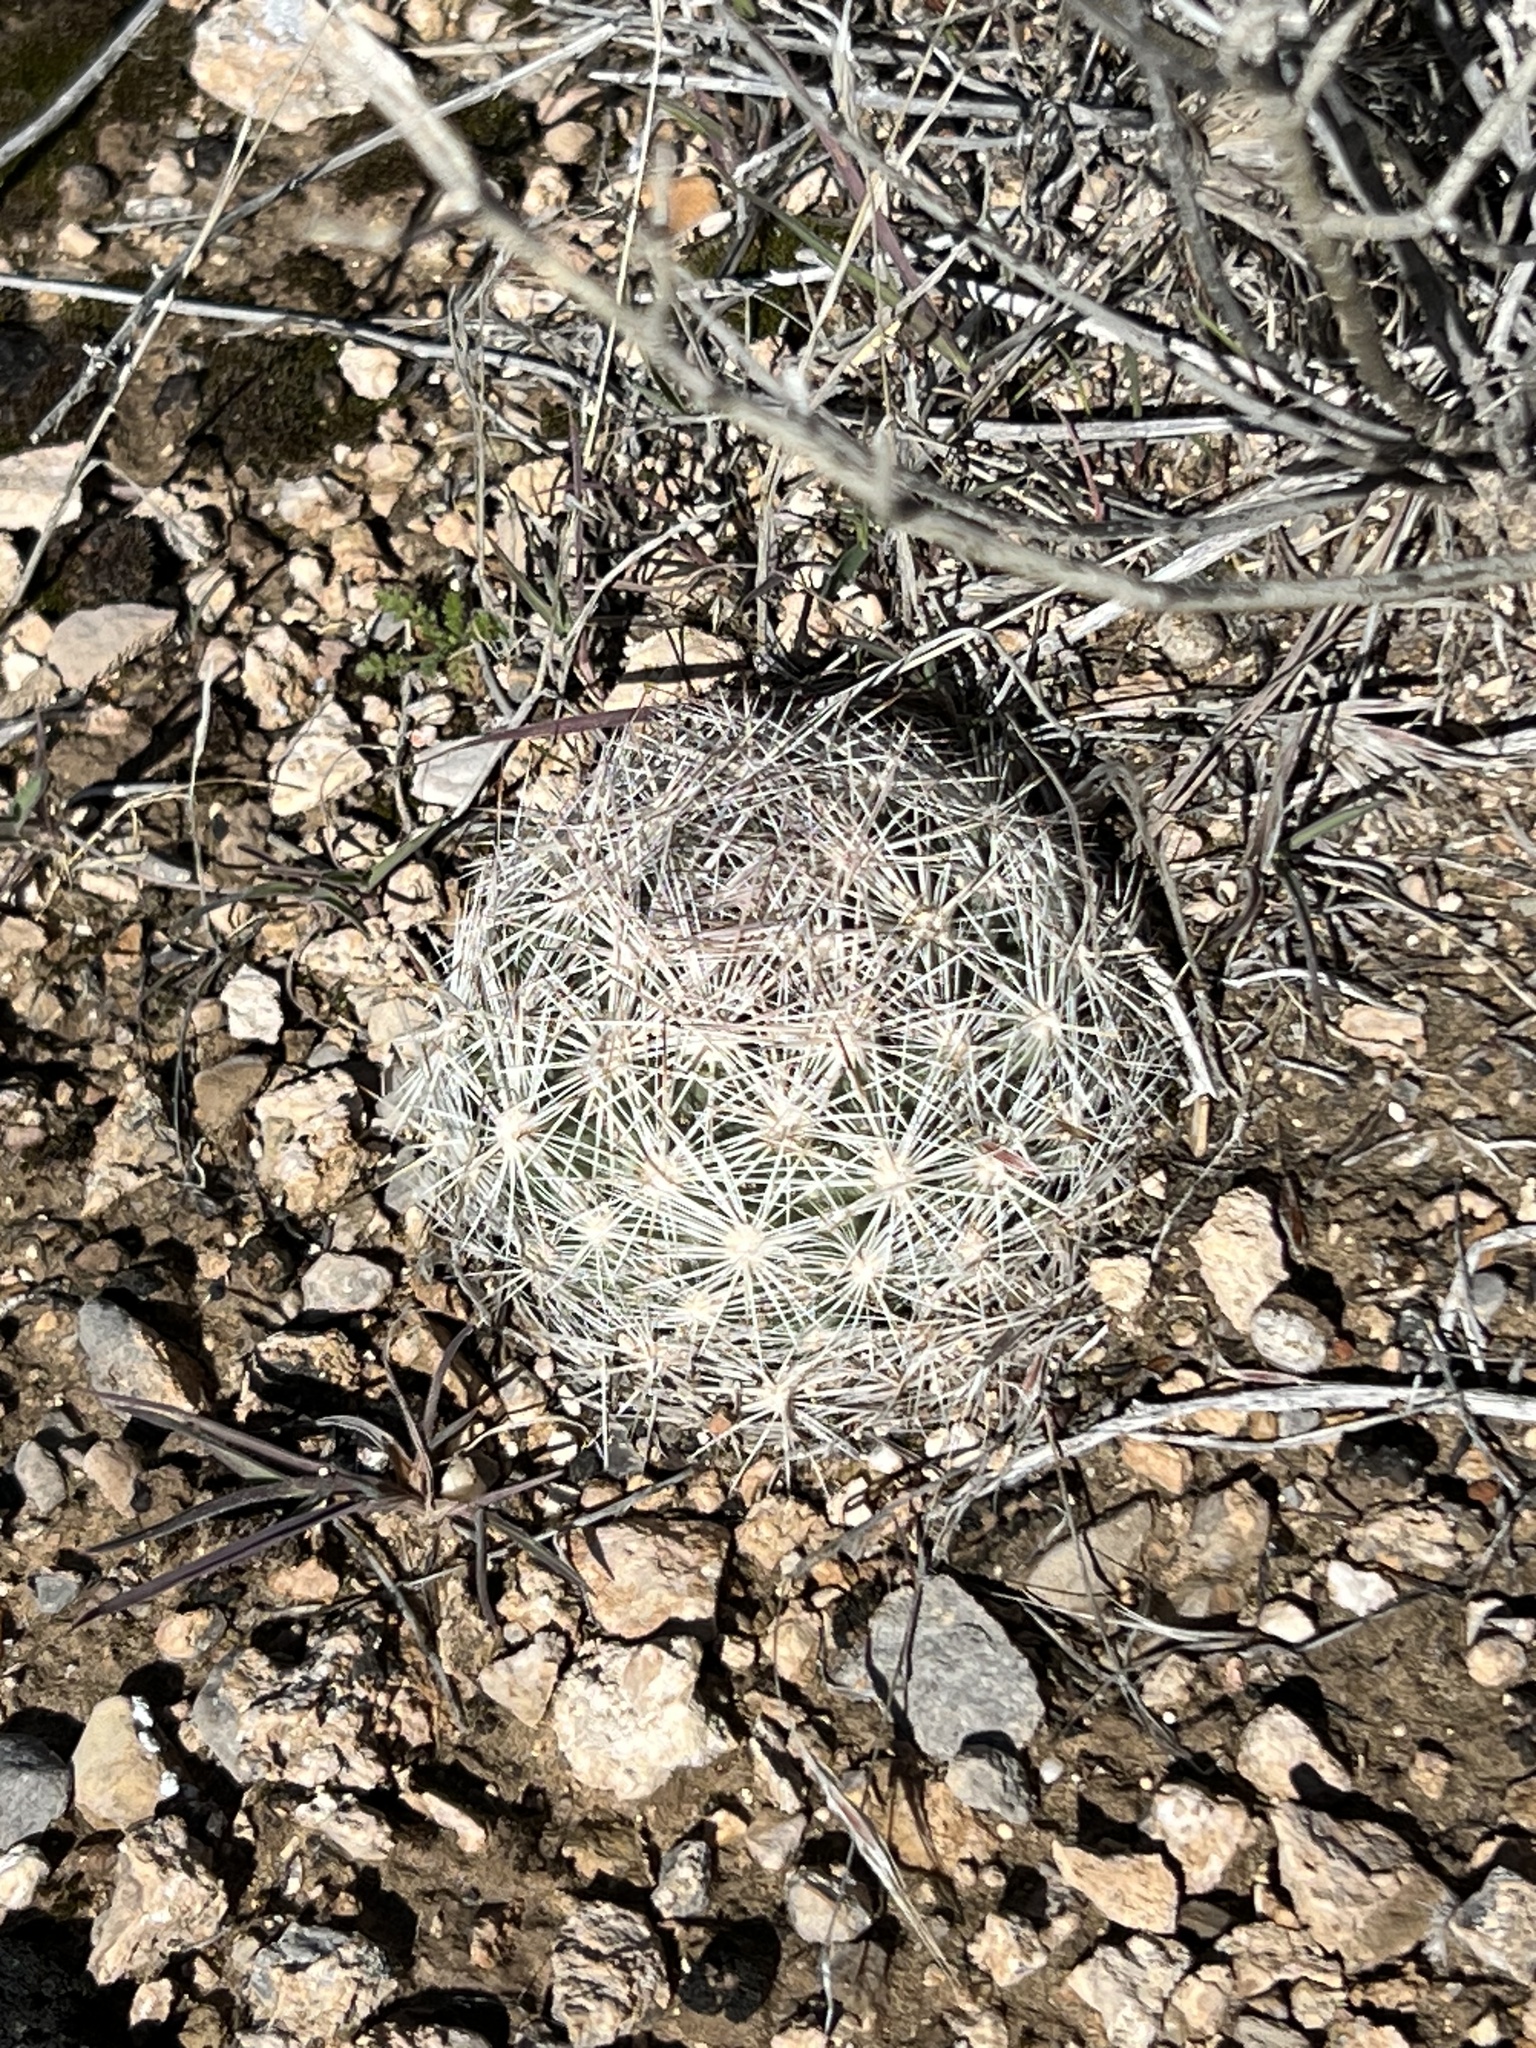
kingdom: Plantae
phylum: Tracheophyta
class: Magnoliopsida
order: Caryophyllales
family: Cactaceae
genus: Pelecyphora
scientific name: Pelecyphora dasyacantha
